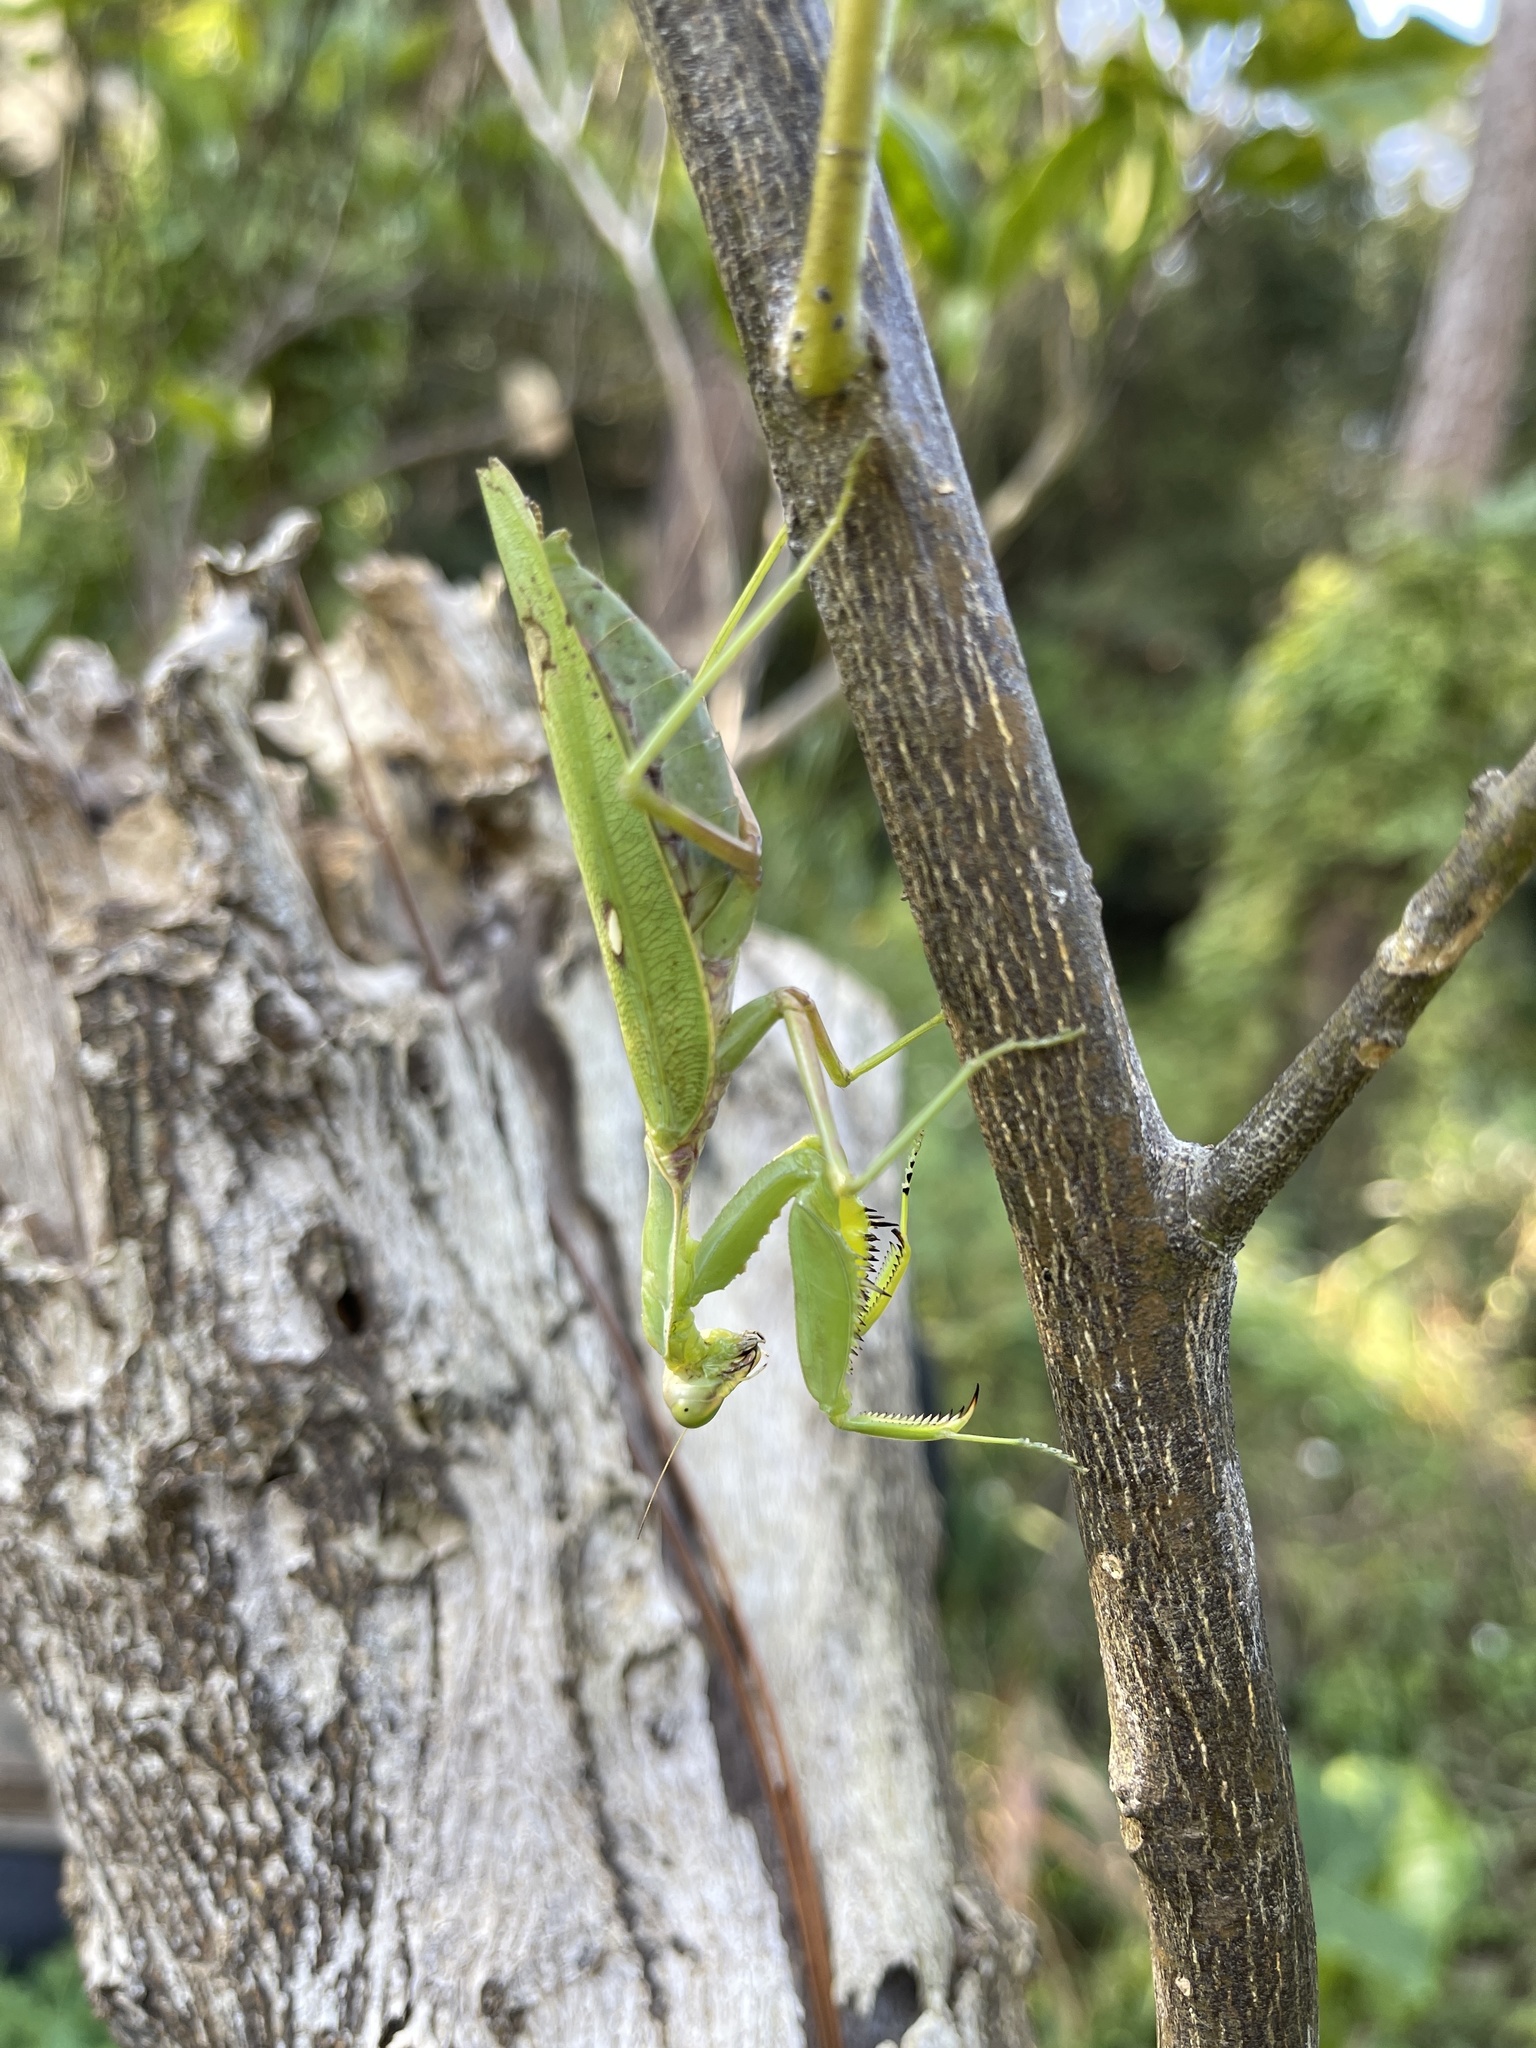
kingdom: Animalia
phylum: Arthropoda
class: Insecta
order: Mantodea
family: Mantidae
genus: Hierodula
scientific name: Hierodula patellifera
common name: Asian mantis
